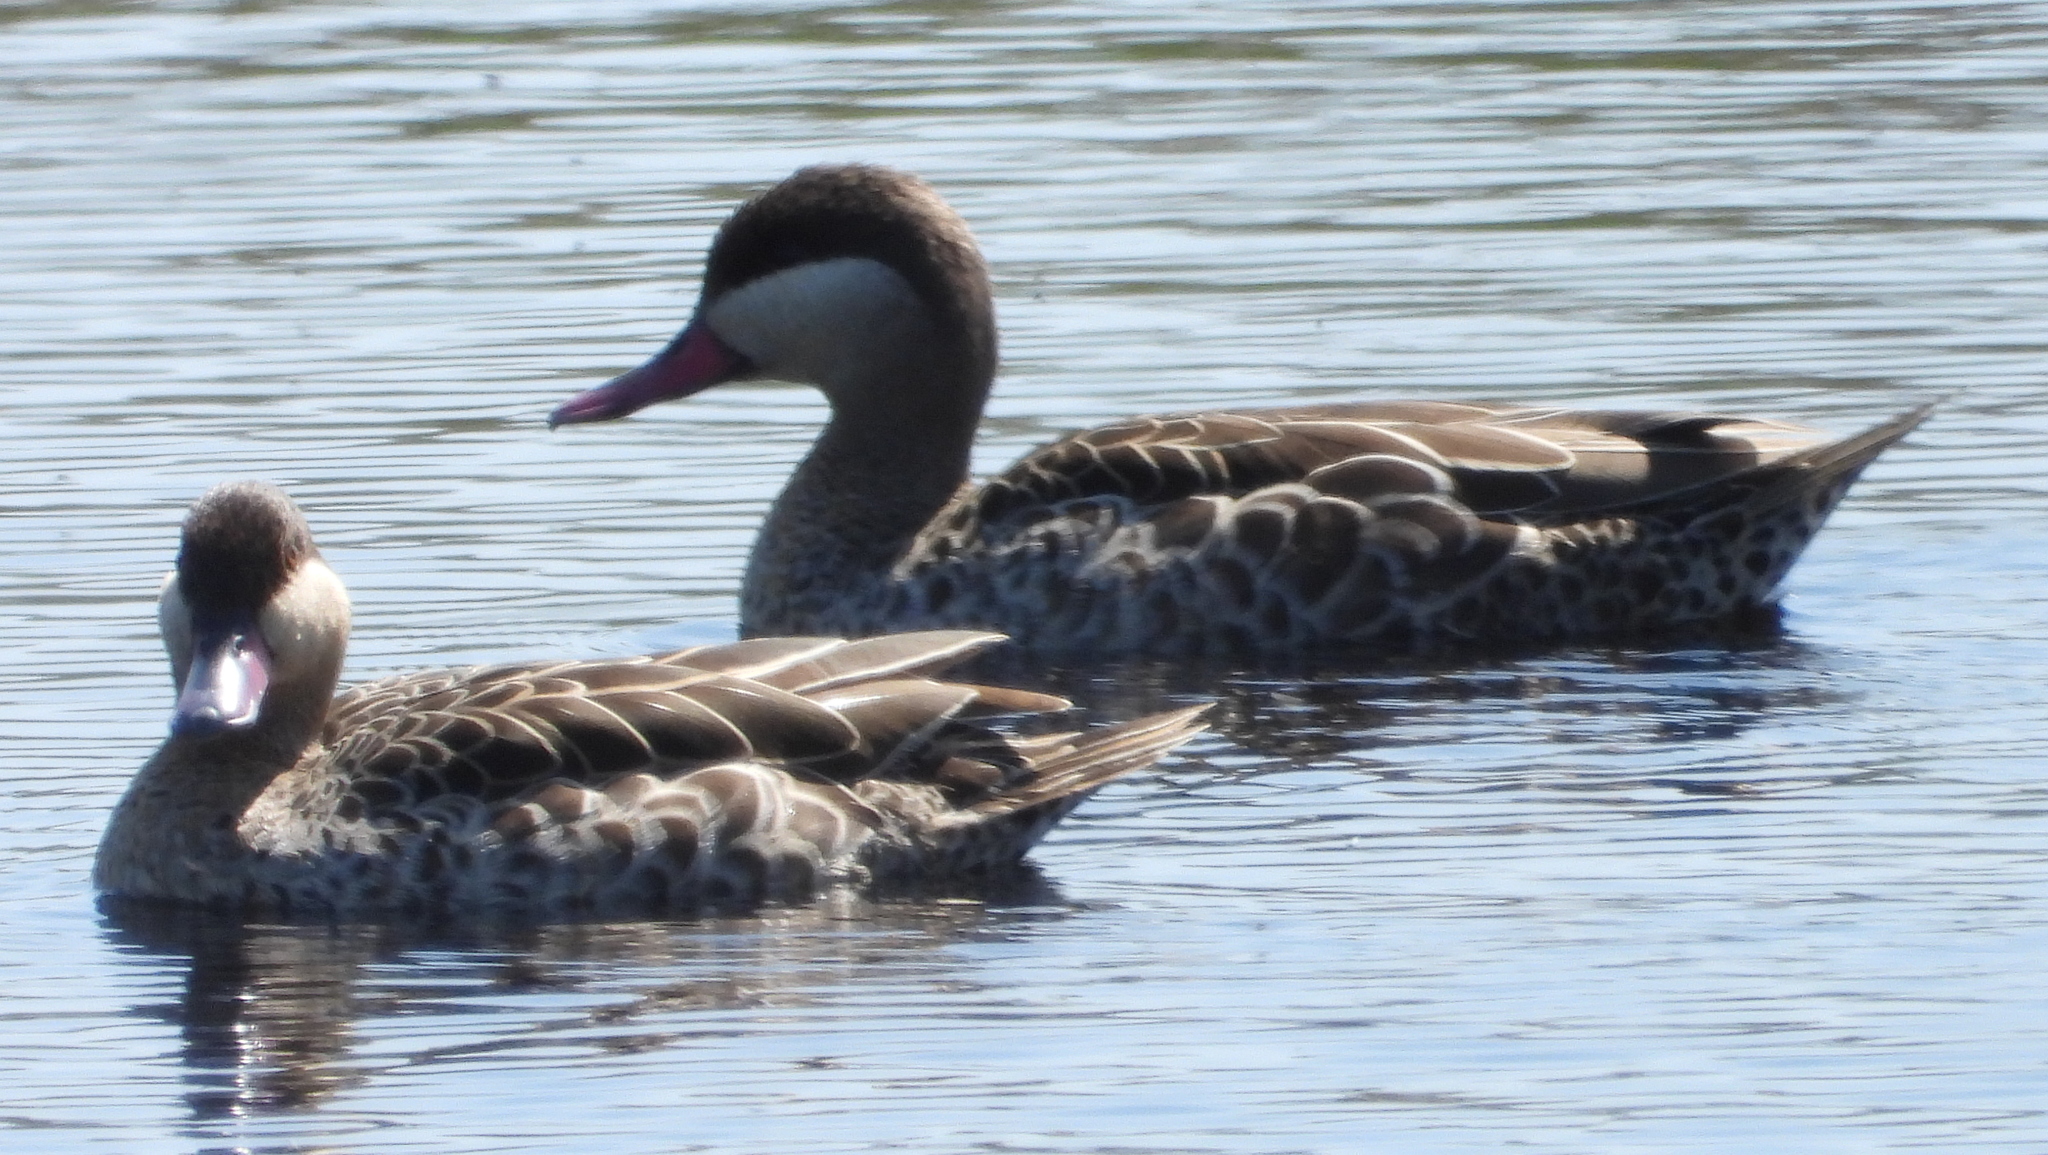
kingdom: Animalia
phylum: Chordata
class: Aves
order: Anseriformes
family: Anatidae
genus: Anas
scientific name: Anas erythrorhyncha
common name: Red-billed teal
